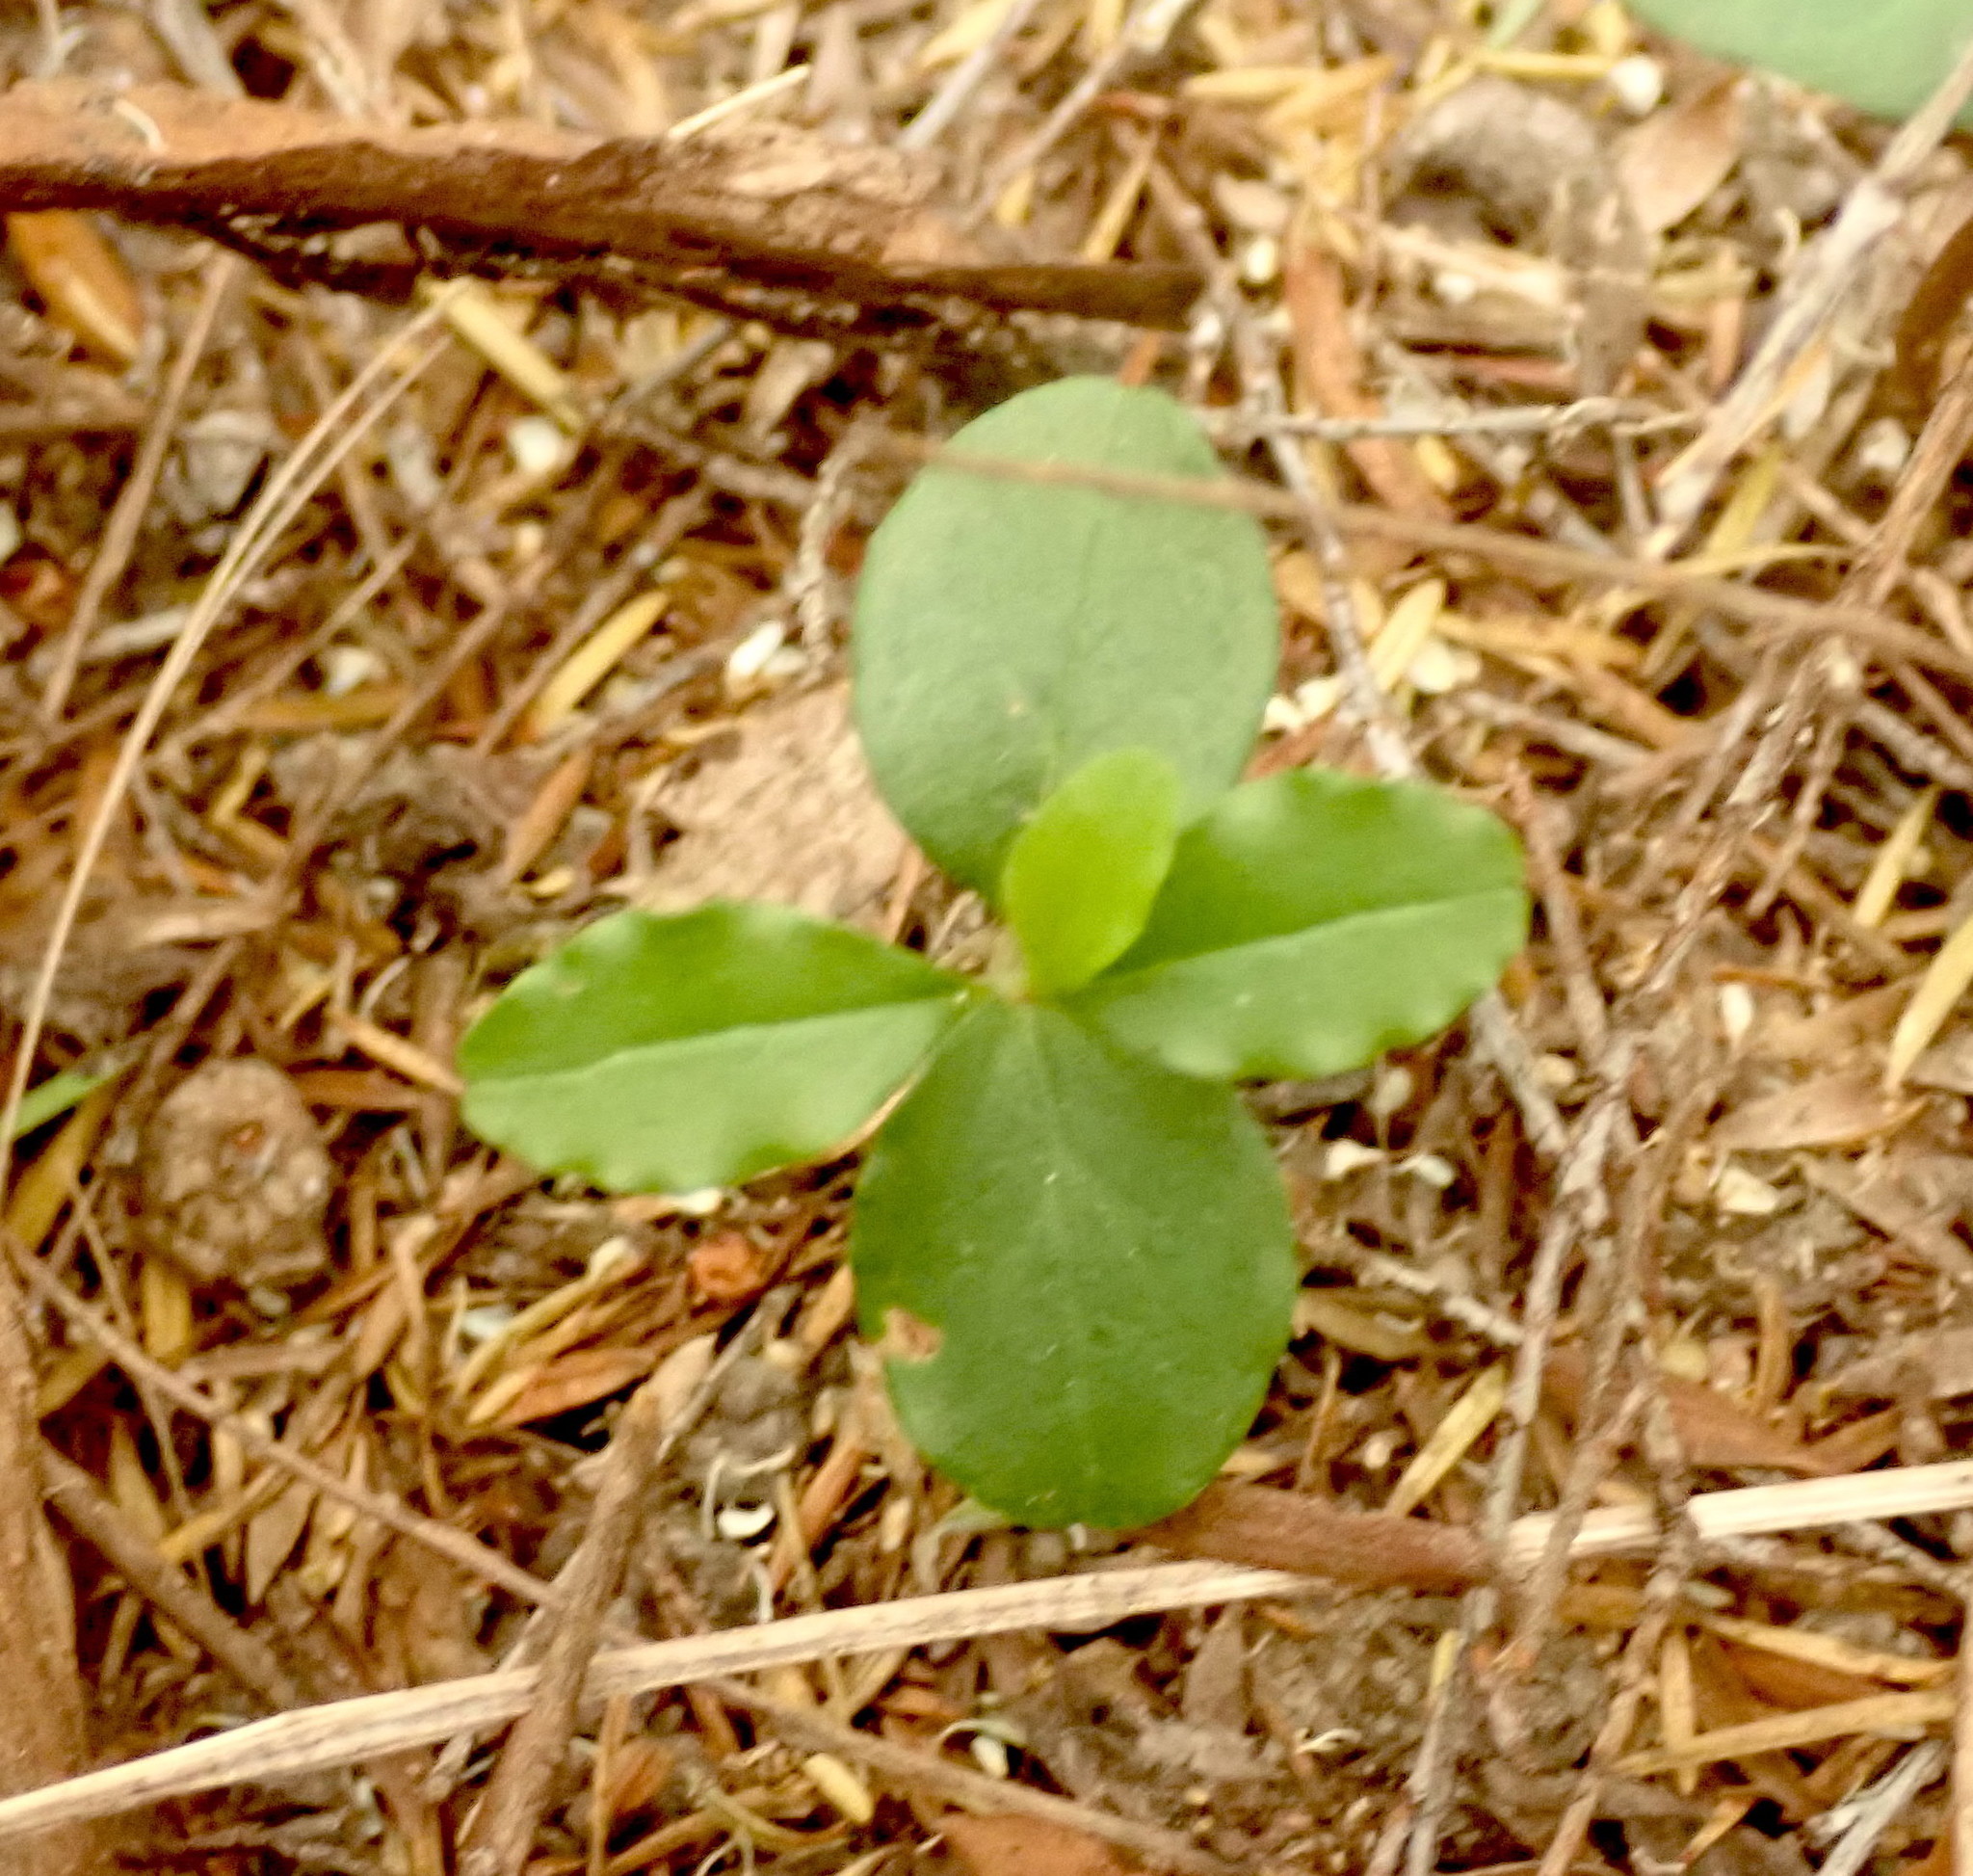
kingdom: Plantae
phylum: Tracheophyta
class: Magnoliopsida
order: Lamiales
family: Oleaceae
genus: Ligustrum
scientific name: Ligustrum sinense
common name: Chinese privet
